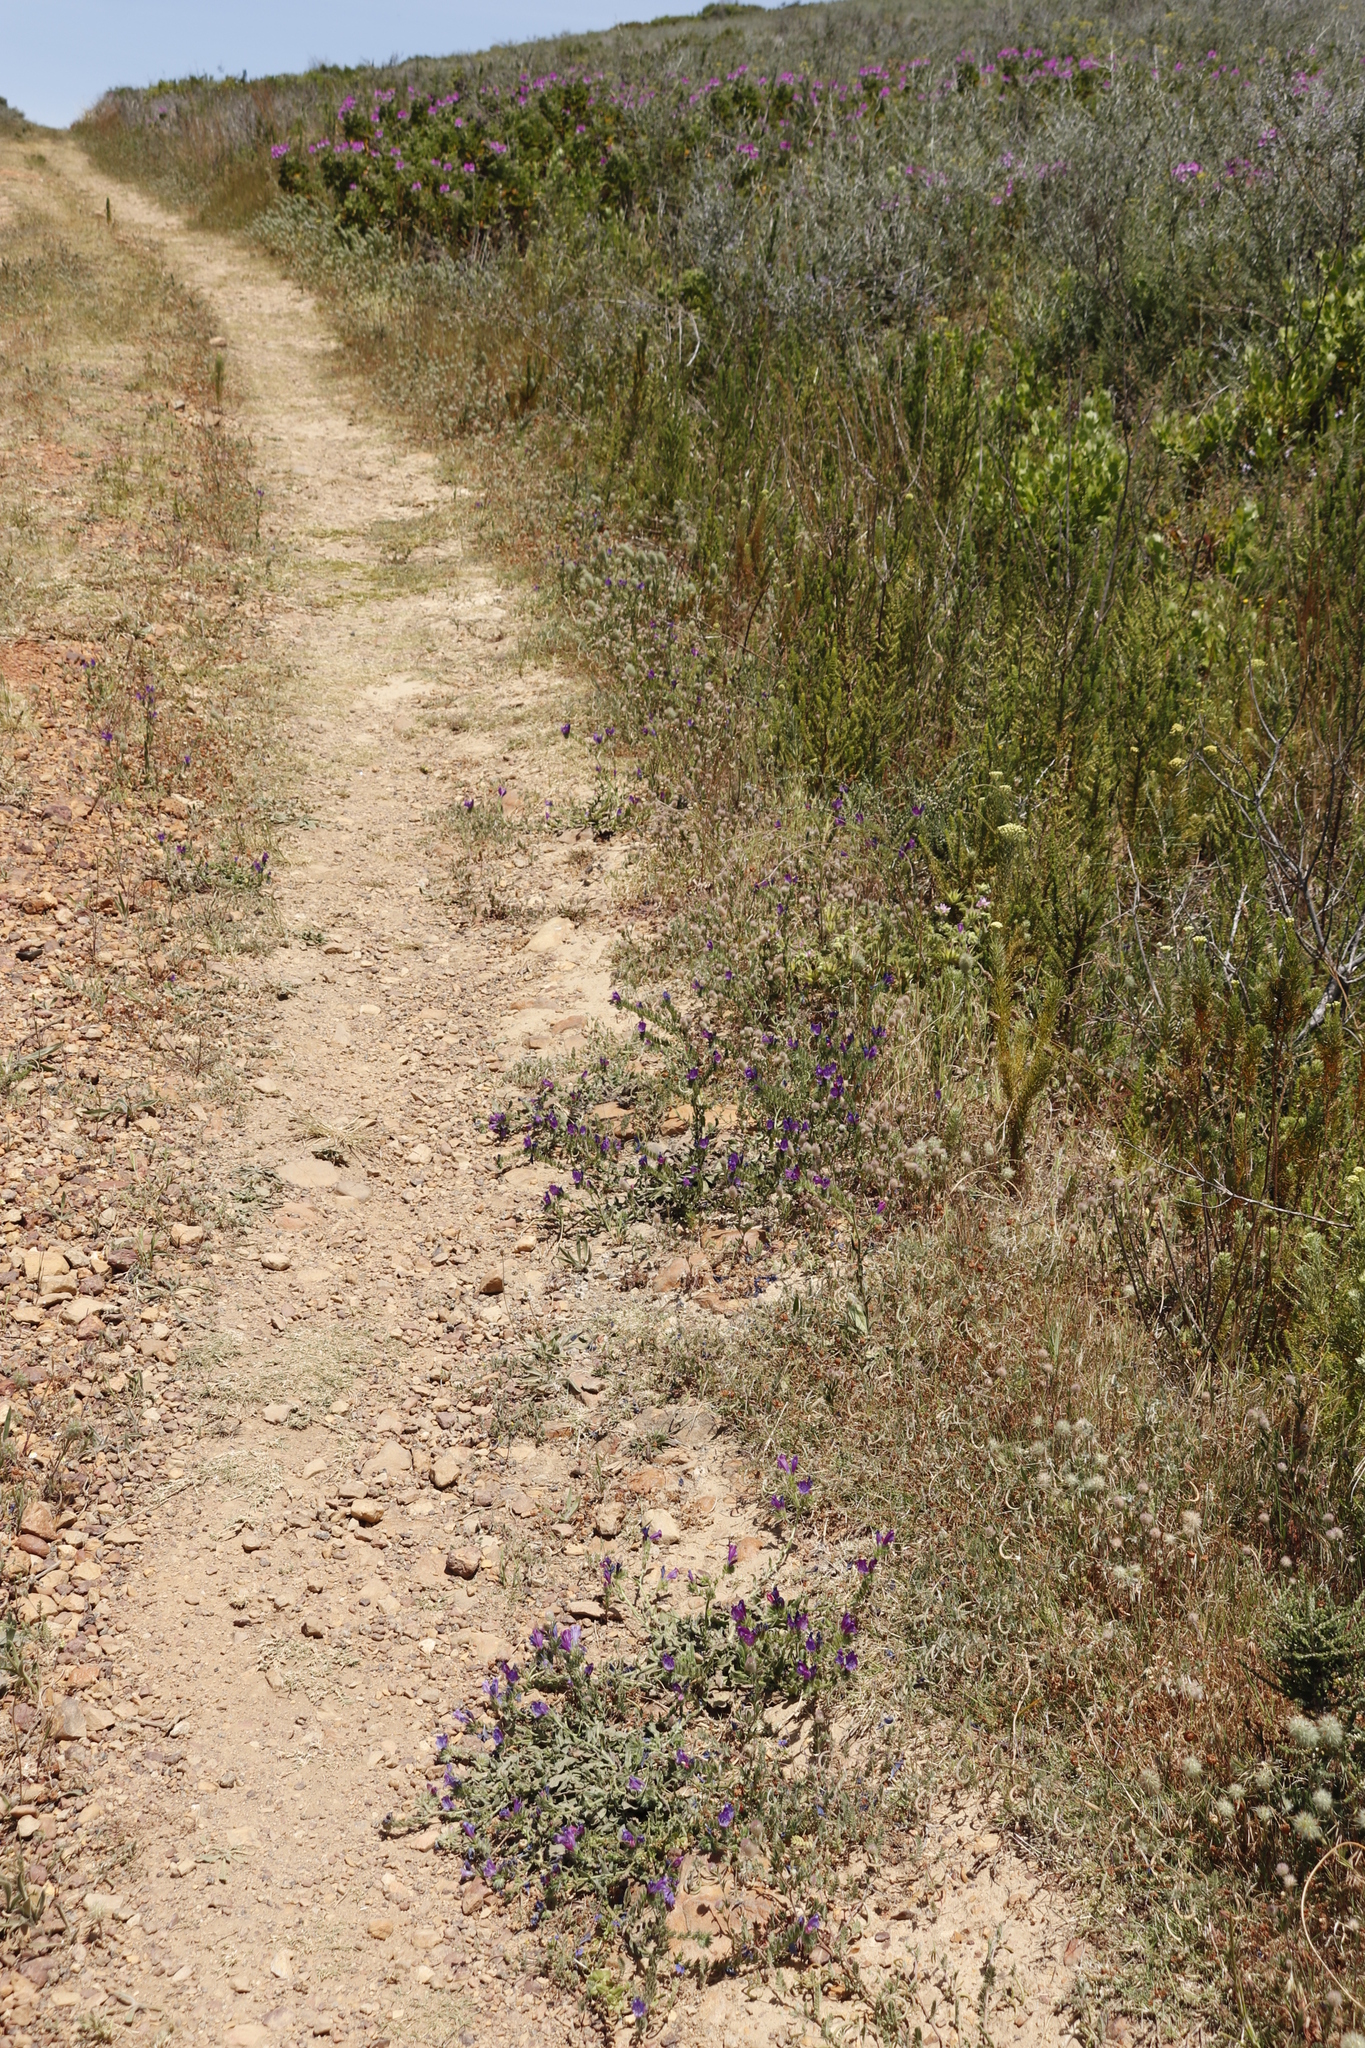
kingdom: Plantae
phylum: Tracheophyta
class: Magnoliopsida
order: Boraginales
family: Boraginaceae
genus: Echium
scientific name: Echium plantagineum
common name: Purple viper's-bugloss
